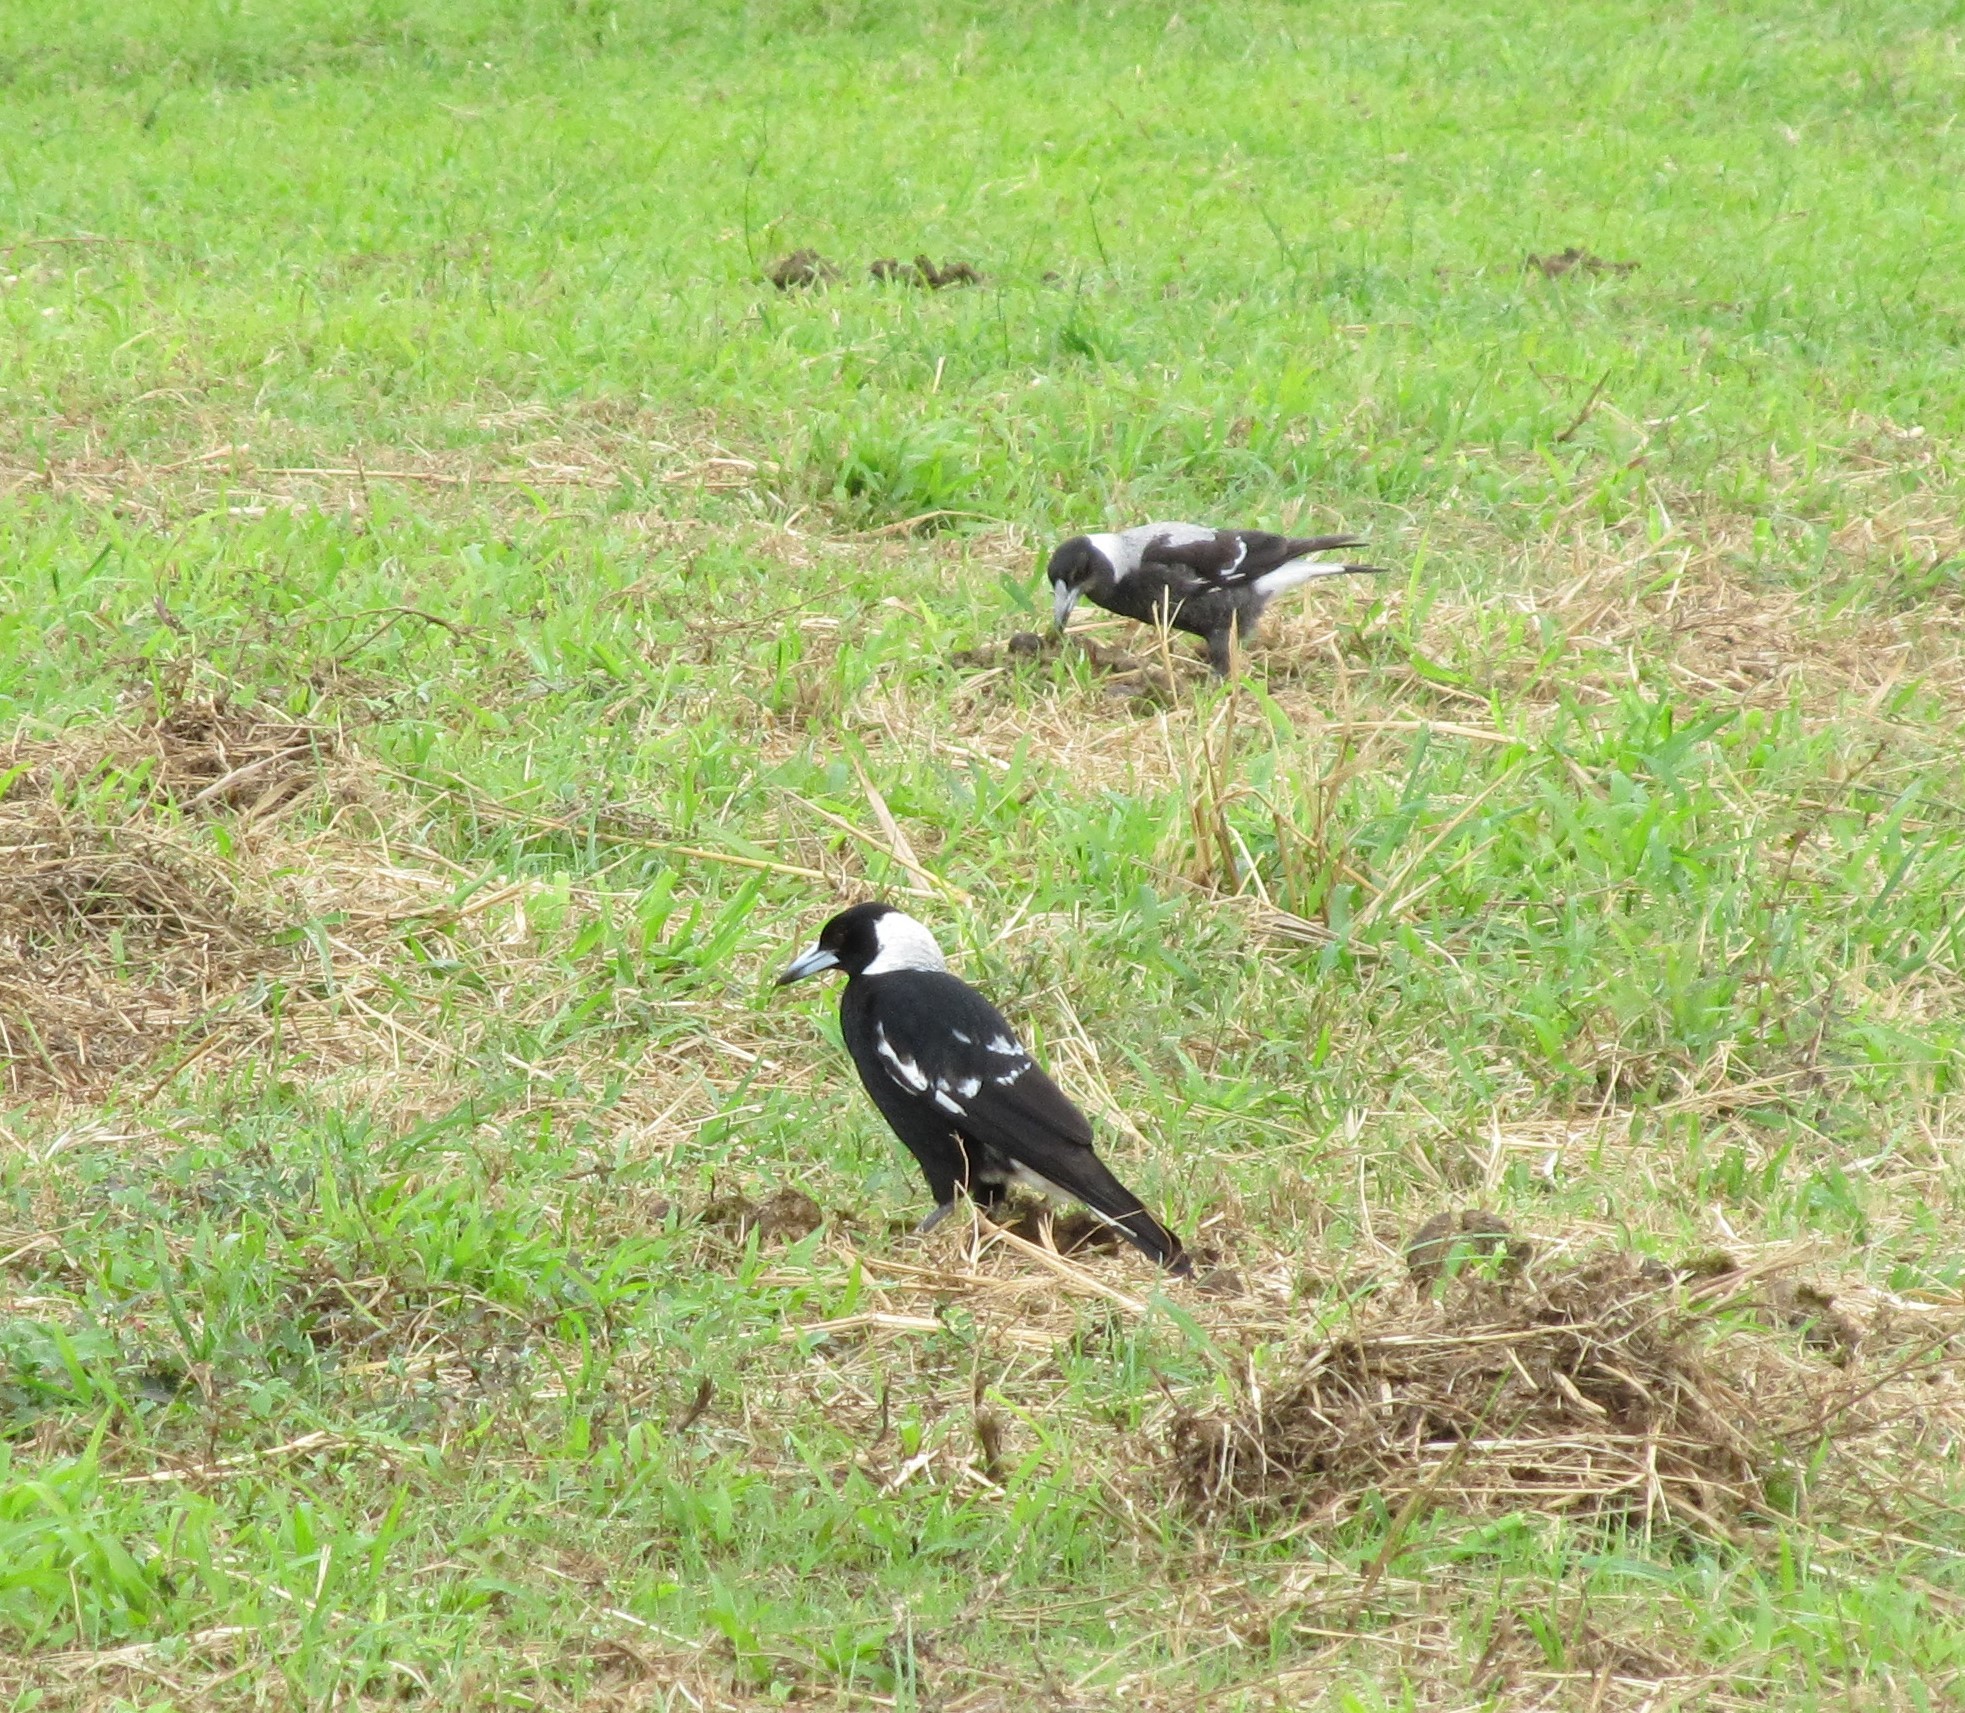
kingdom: Animalia
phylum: Chordata
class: Aves
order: Passeriformes
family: Cracticidae
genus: Gymnorhina
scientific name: Gymnorhina tibicen
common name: Australian magpie
